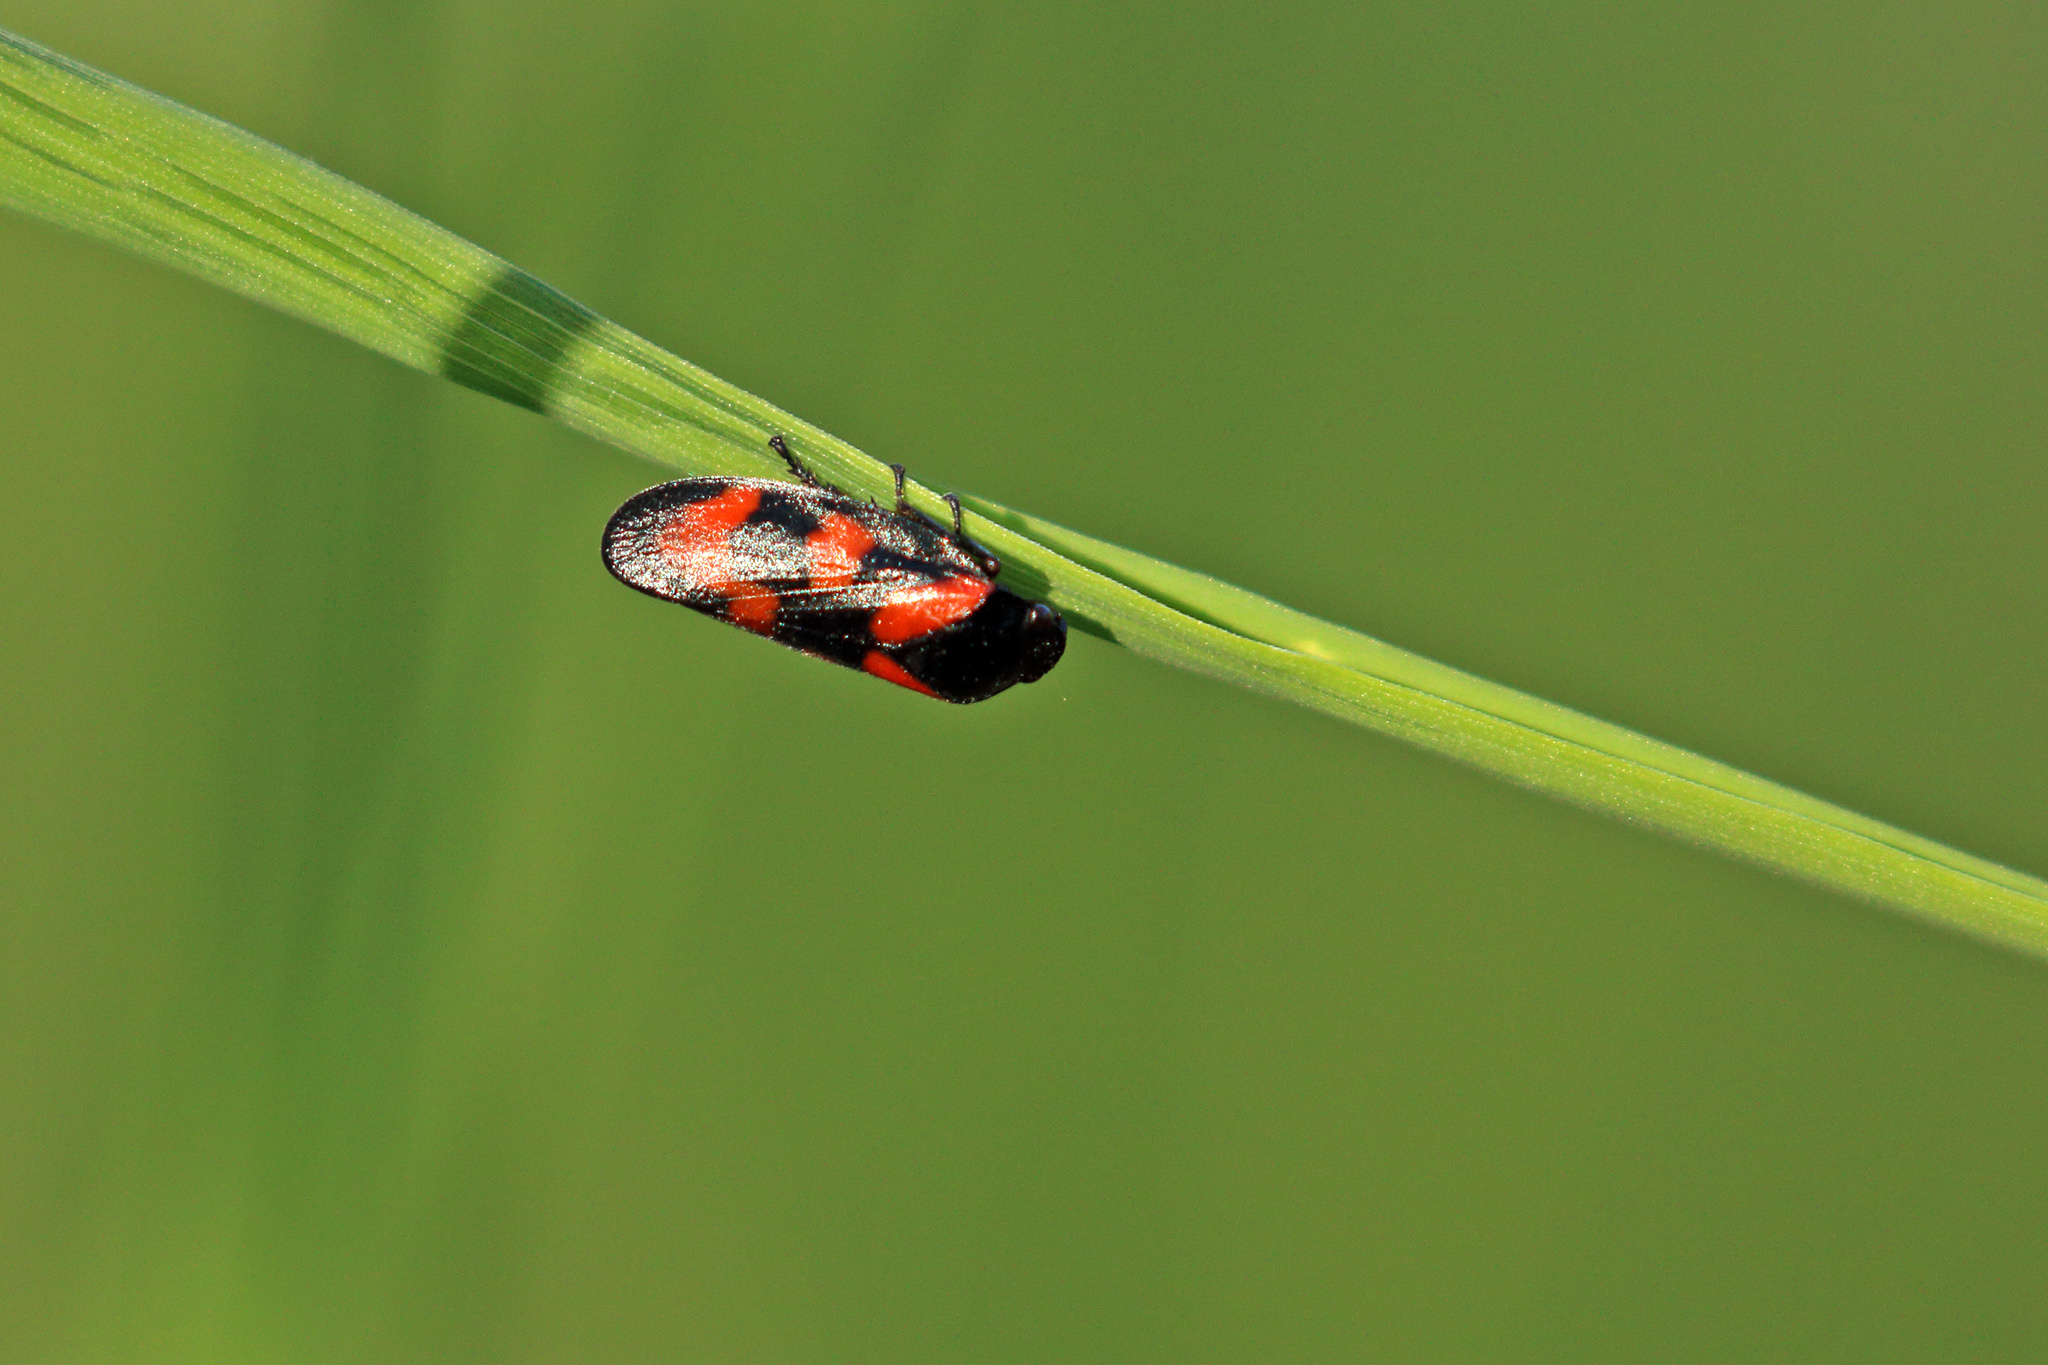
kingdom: Animalia
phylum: Arthropoda
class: Insecta
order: Hemiptera
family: Cercopidae
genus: Cercopis
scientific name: Cercopis vulnerata
